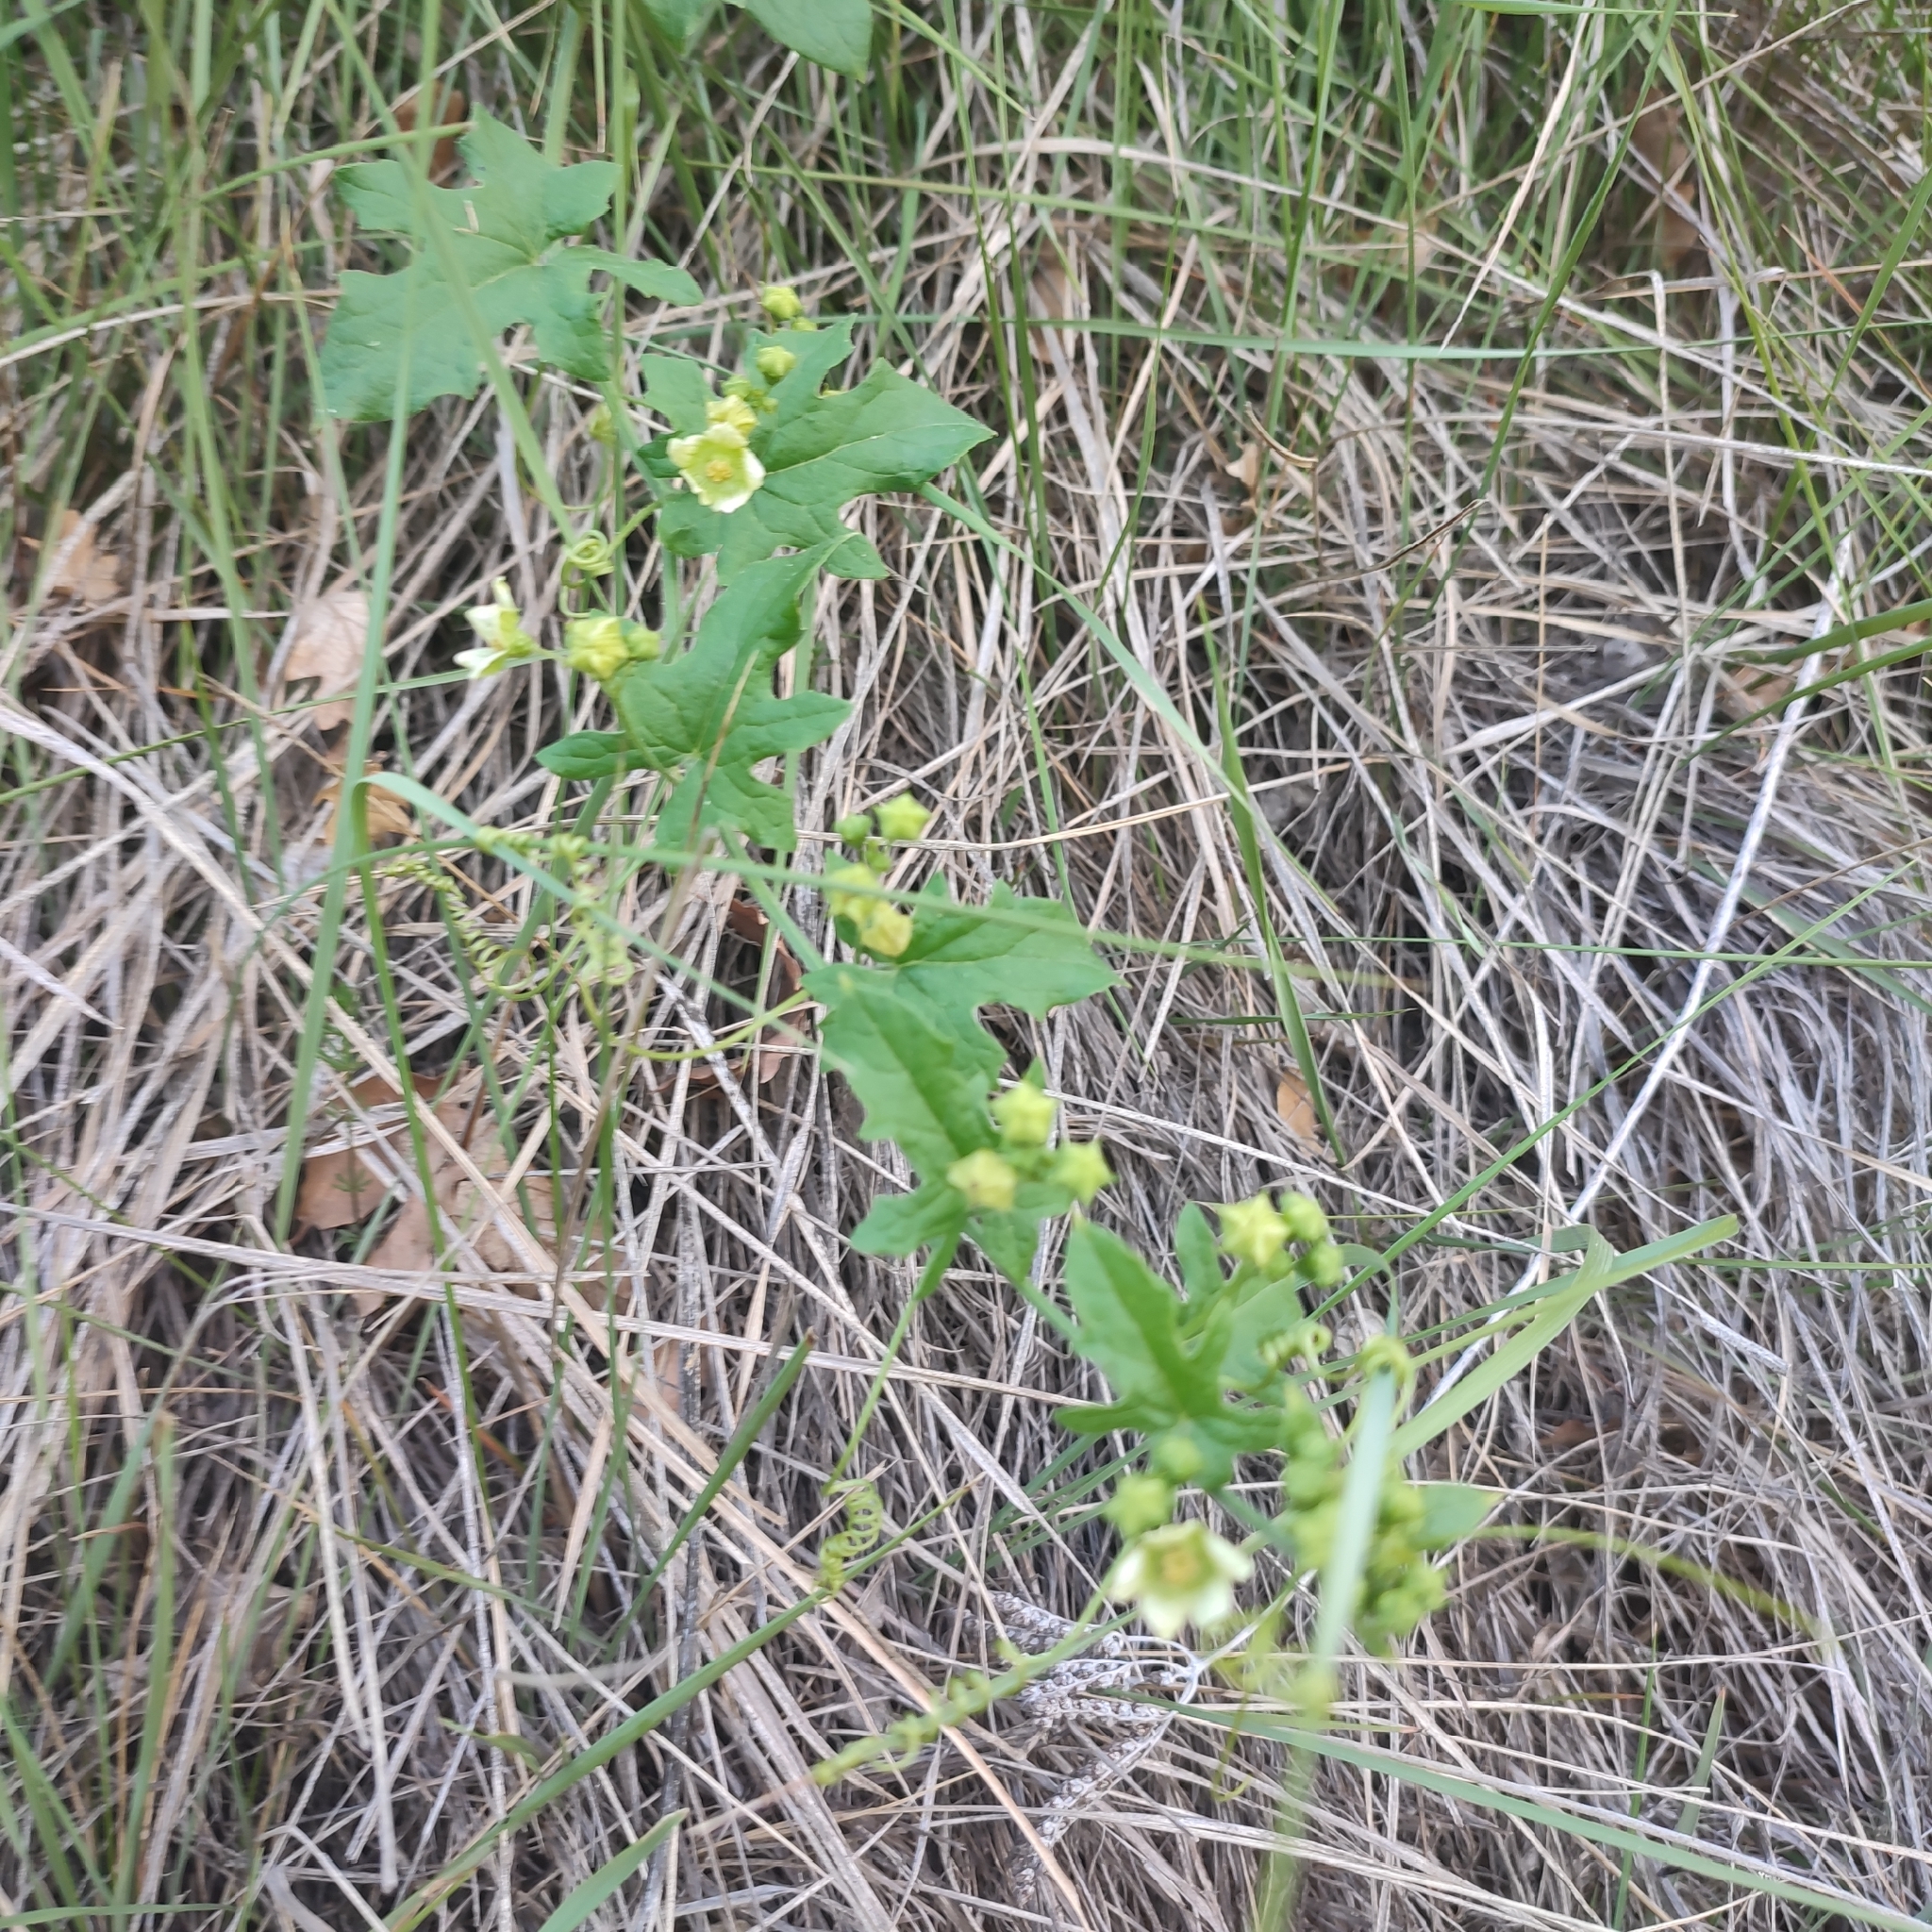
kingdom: Plantae
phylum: Tracheophyta
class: Magnoliopsida
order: Cucurbitales
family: Cucurbitaceae
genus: Bryonia
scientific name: Bryonia cretica
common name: Cretan bryony
